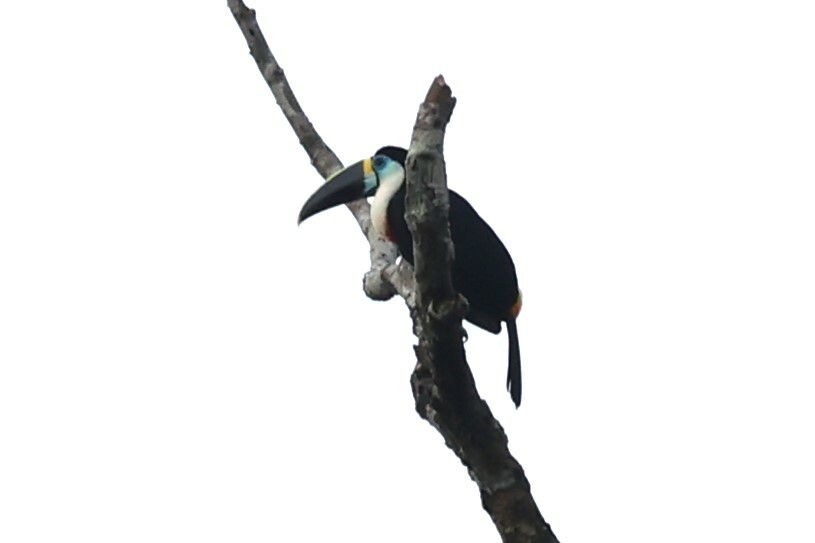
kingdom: Animalia
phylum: Chordata
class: Aves
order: Piciformes
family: Ramphastidae
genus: Ramphastos
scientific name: Ramphastos vitellinus
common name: Channel-billed toucan
